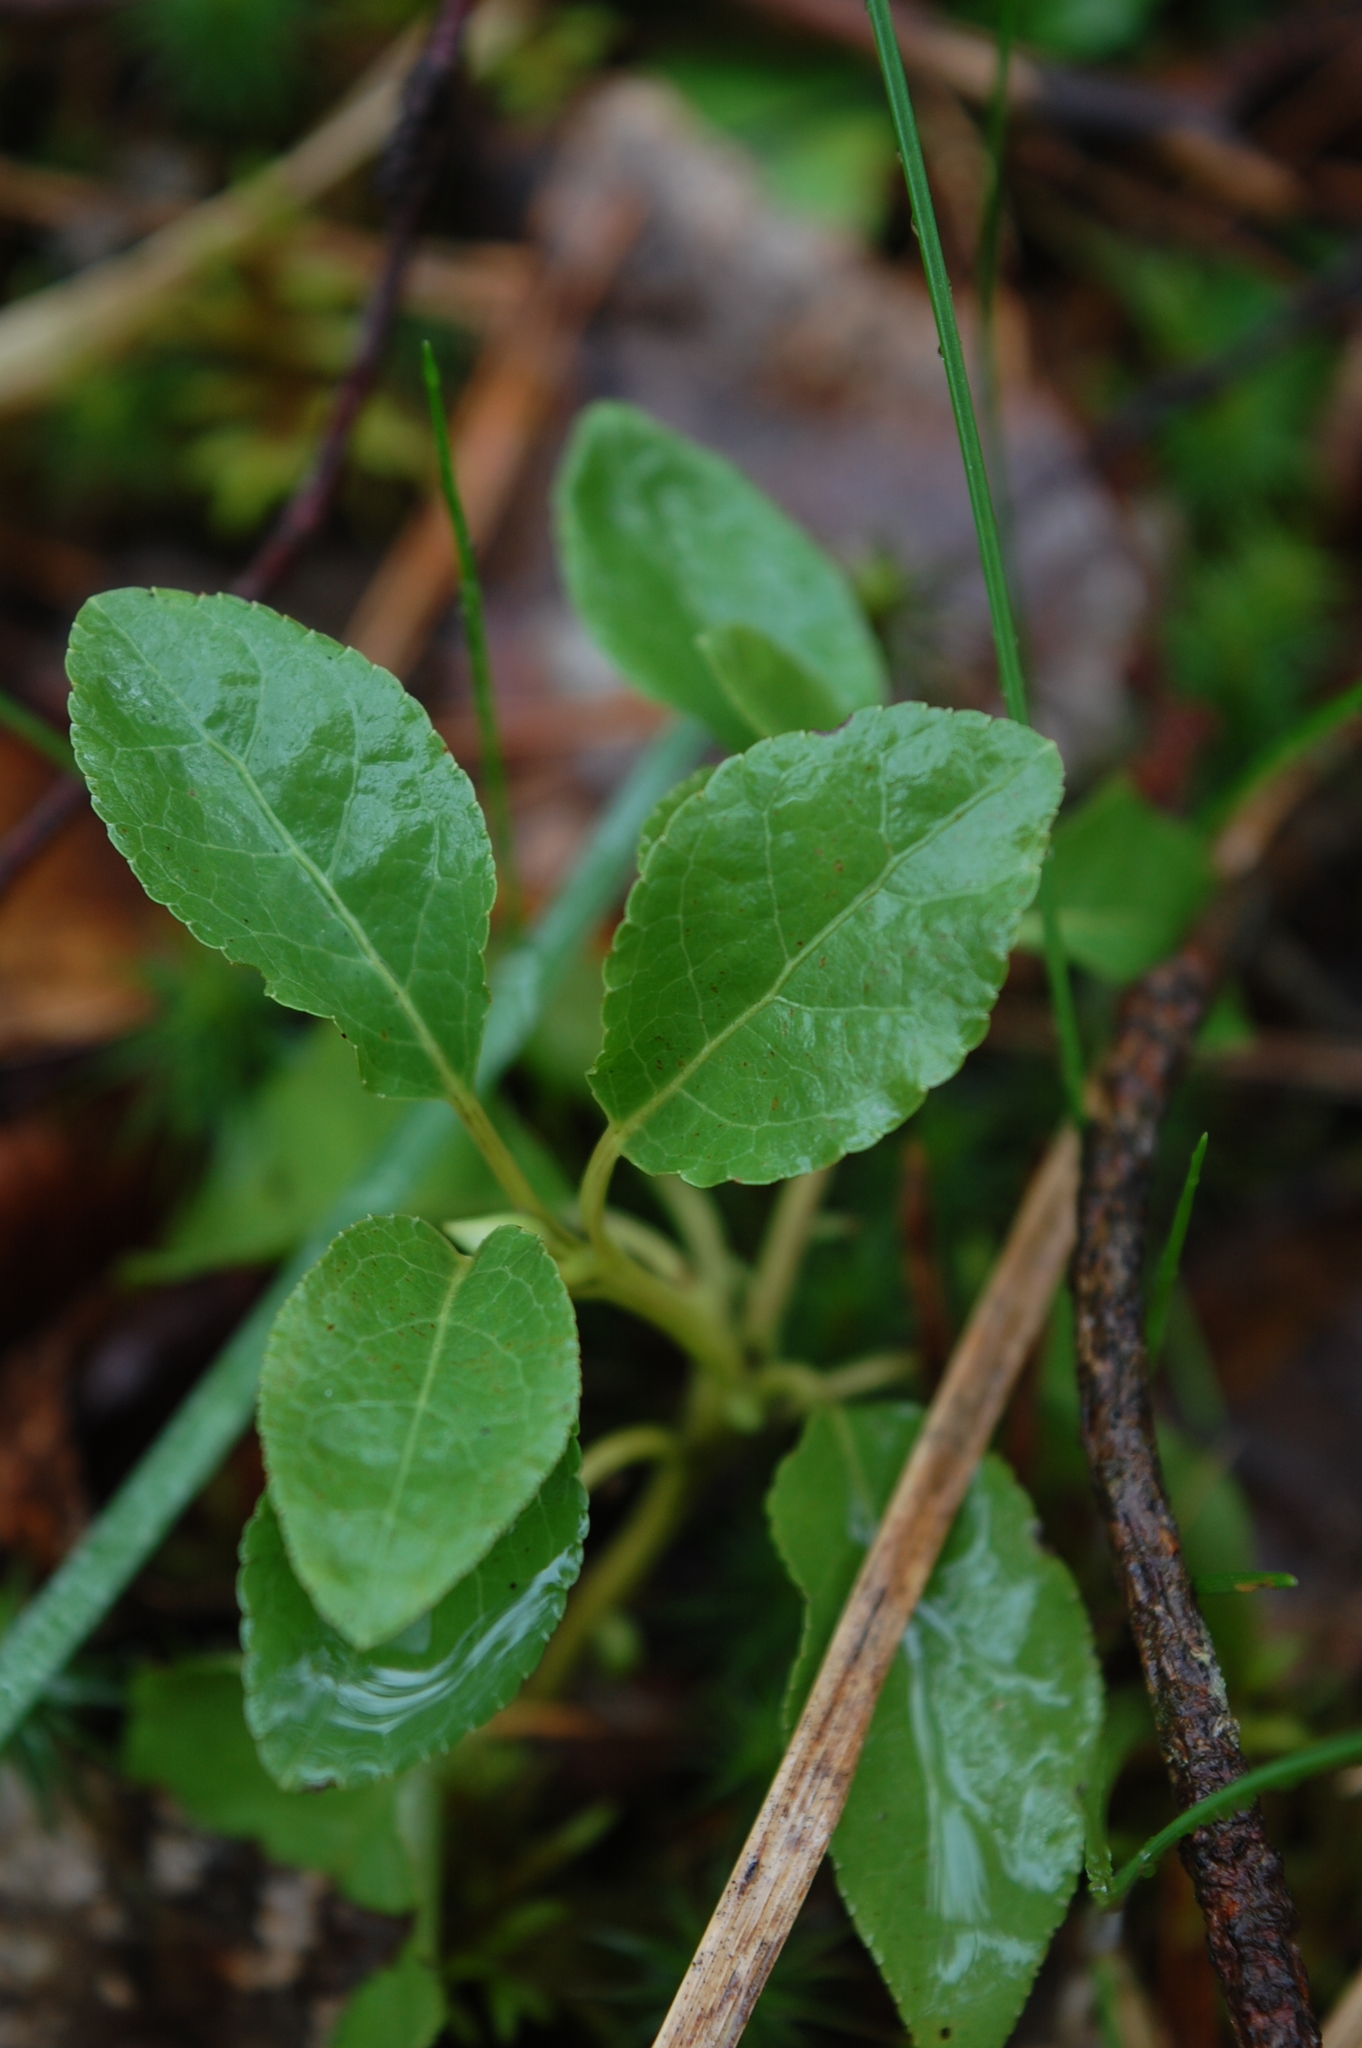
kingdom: Plantae
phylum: Tracheophyta
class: Magnoliopsida
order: Ericales
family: Ericaceae
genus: Orthilia
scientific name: Orthilia secunda
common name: One-sided orthilia
